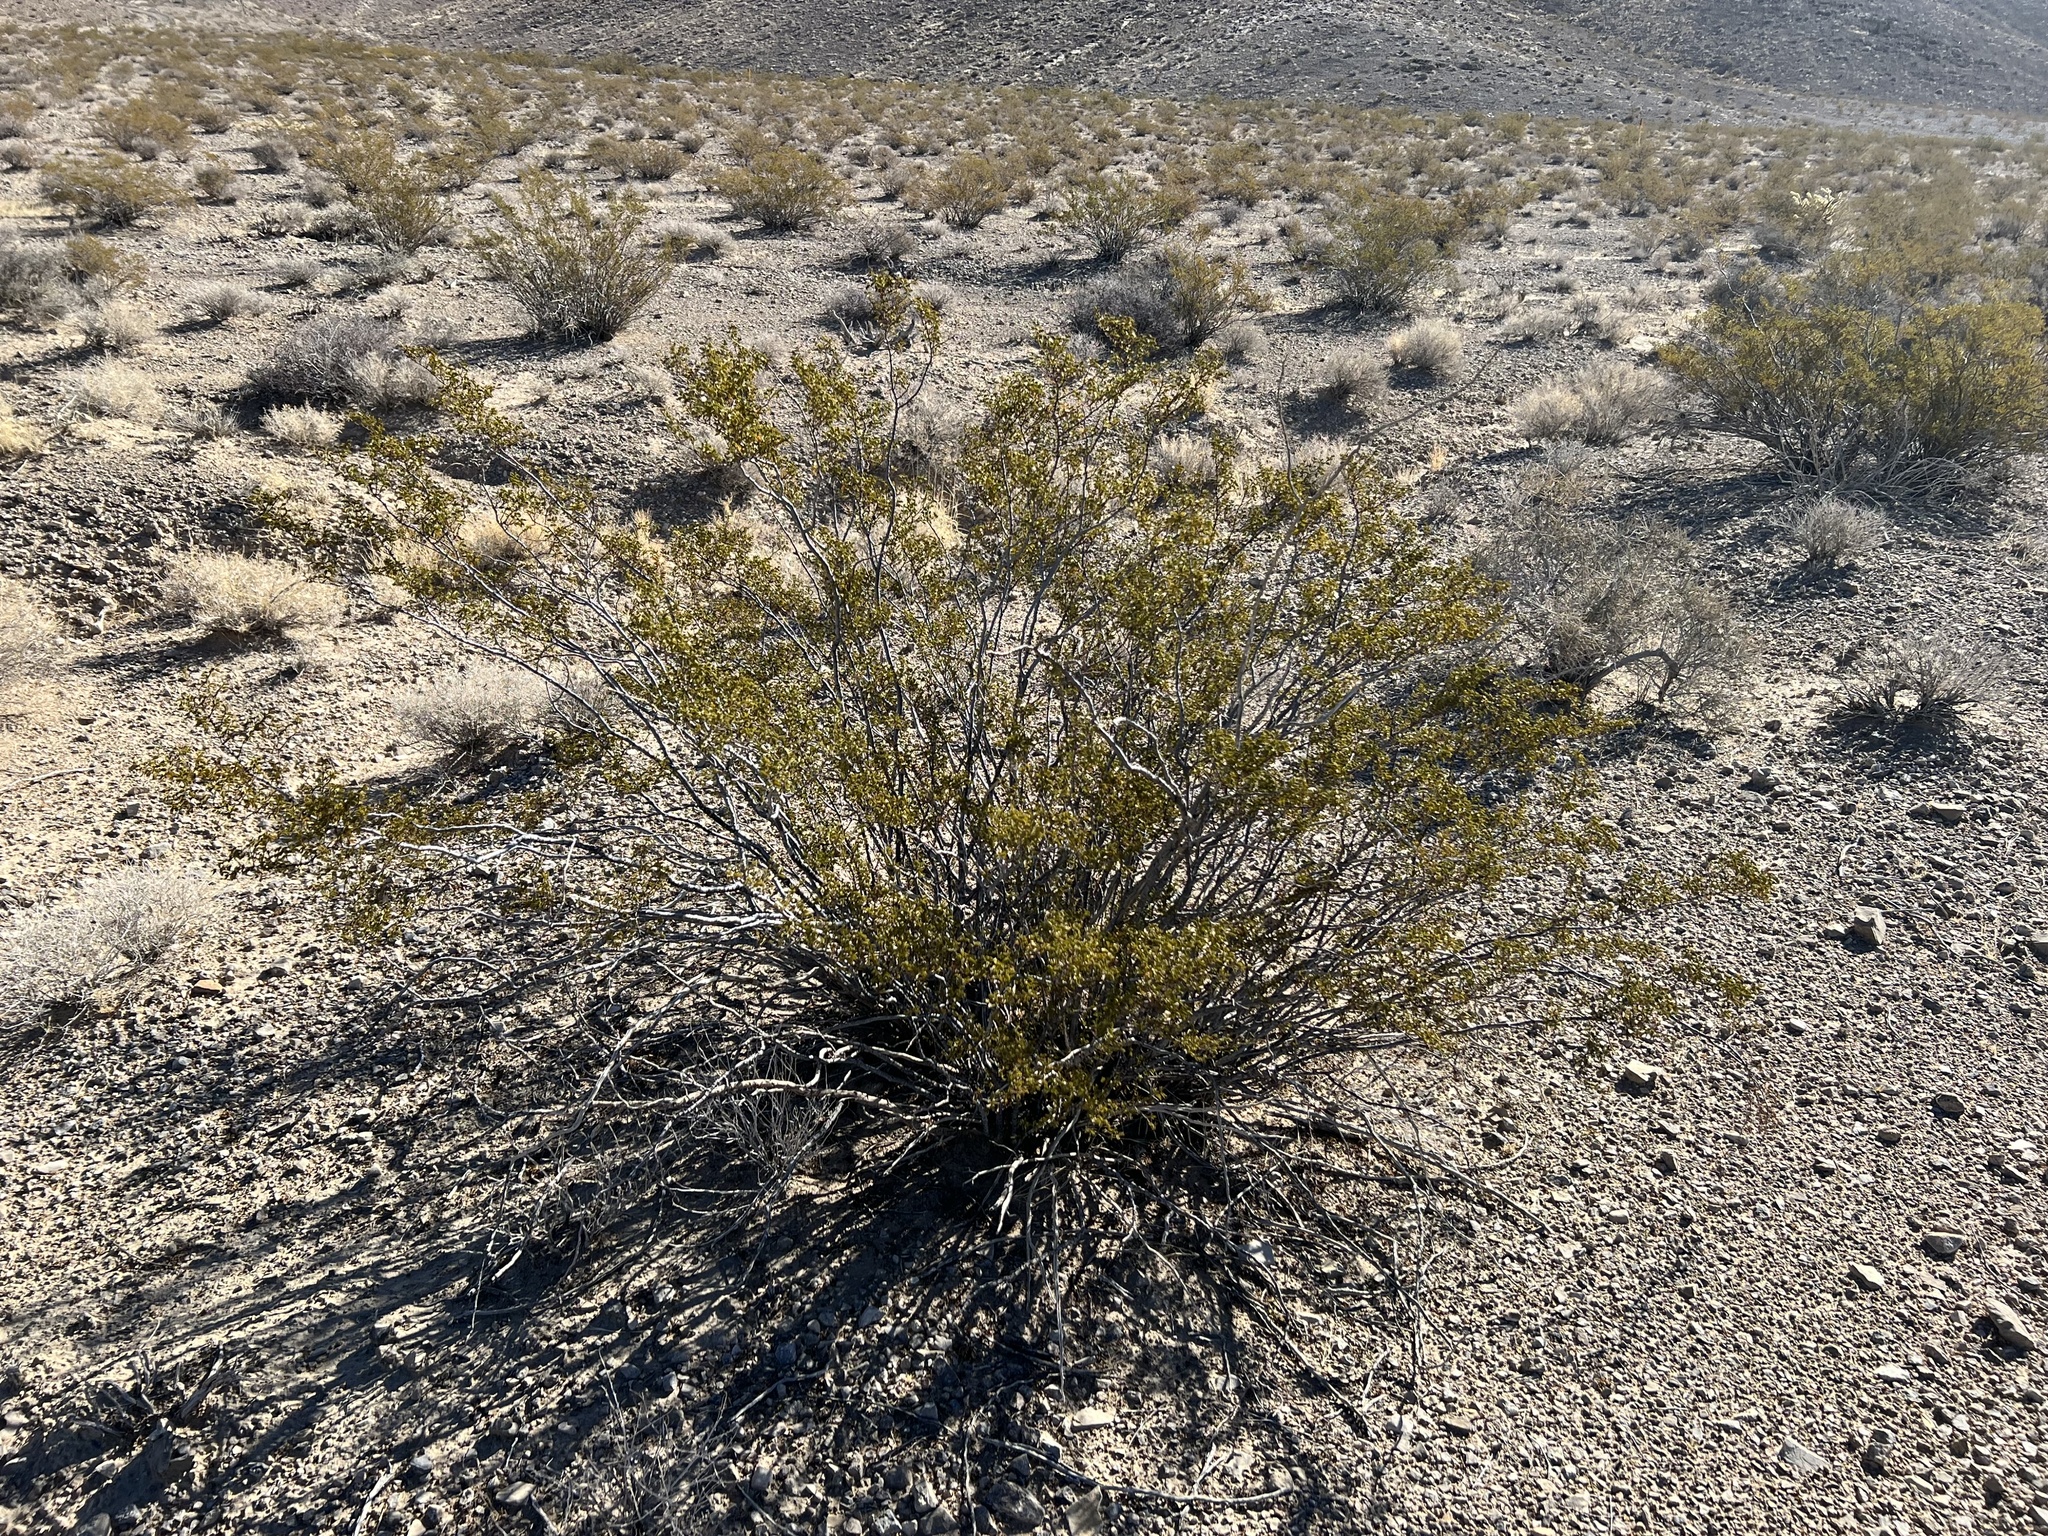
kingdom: Plantae
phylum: Tracheophyta
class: Magnoliopsida
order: Zygophyllales
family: Zygophyllaceae
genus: Larrea
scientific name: Larrea tridentata
